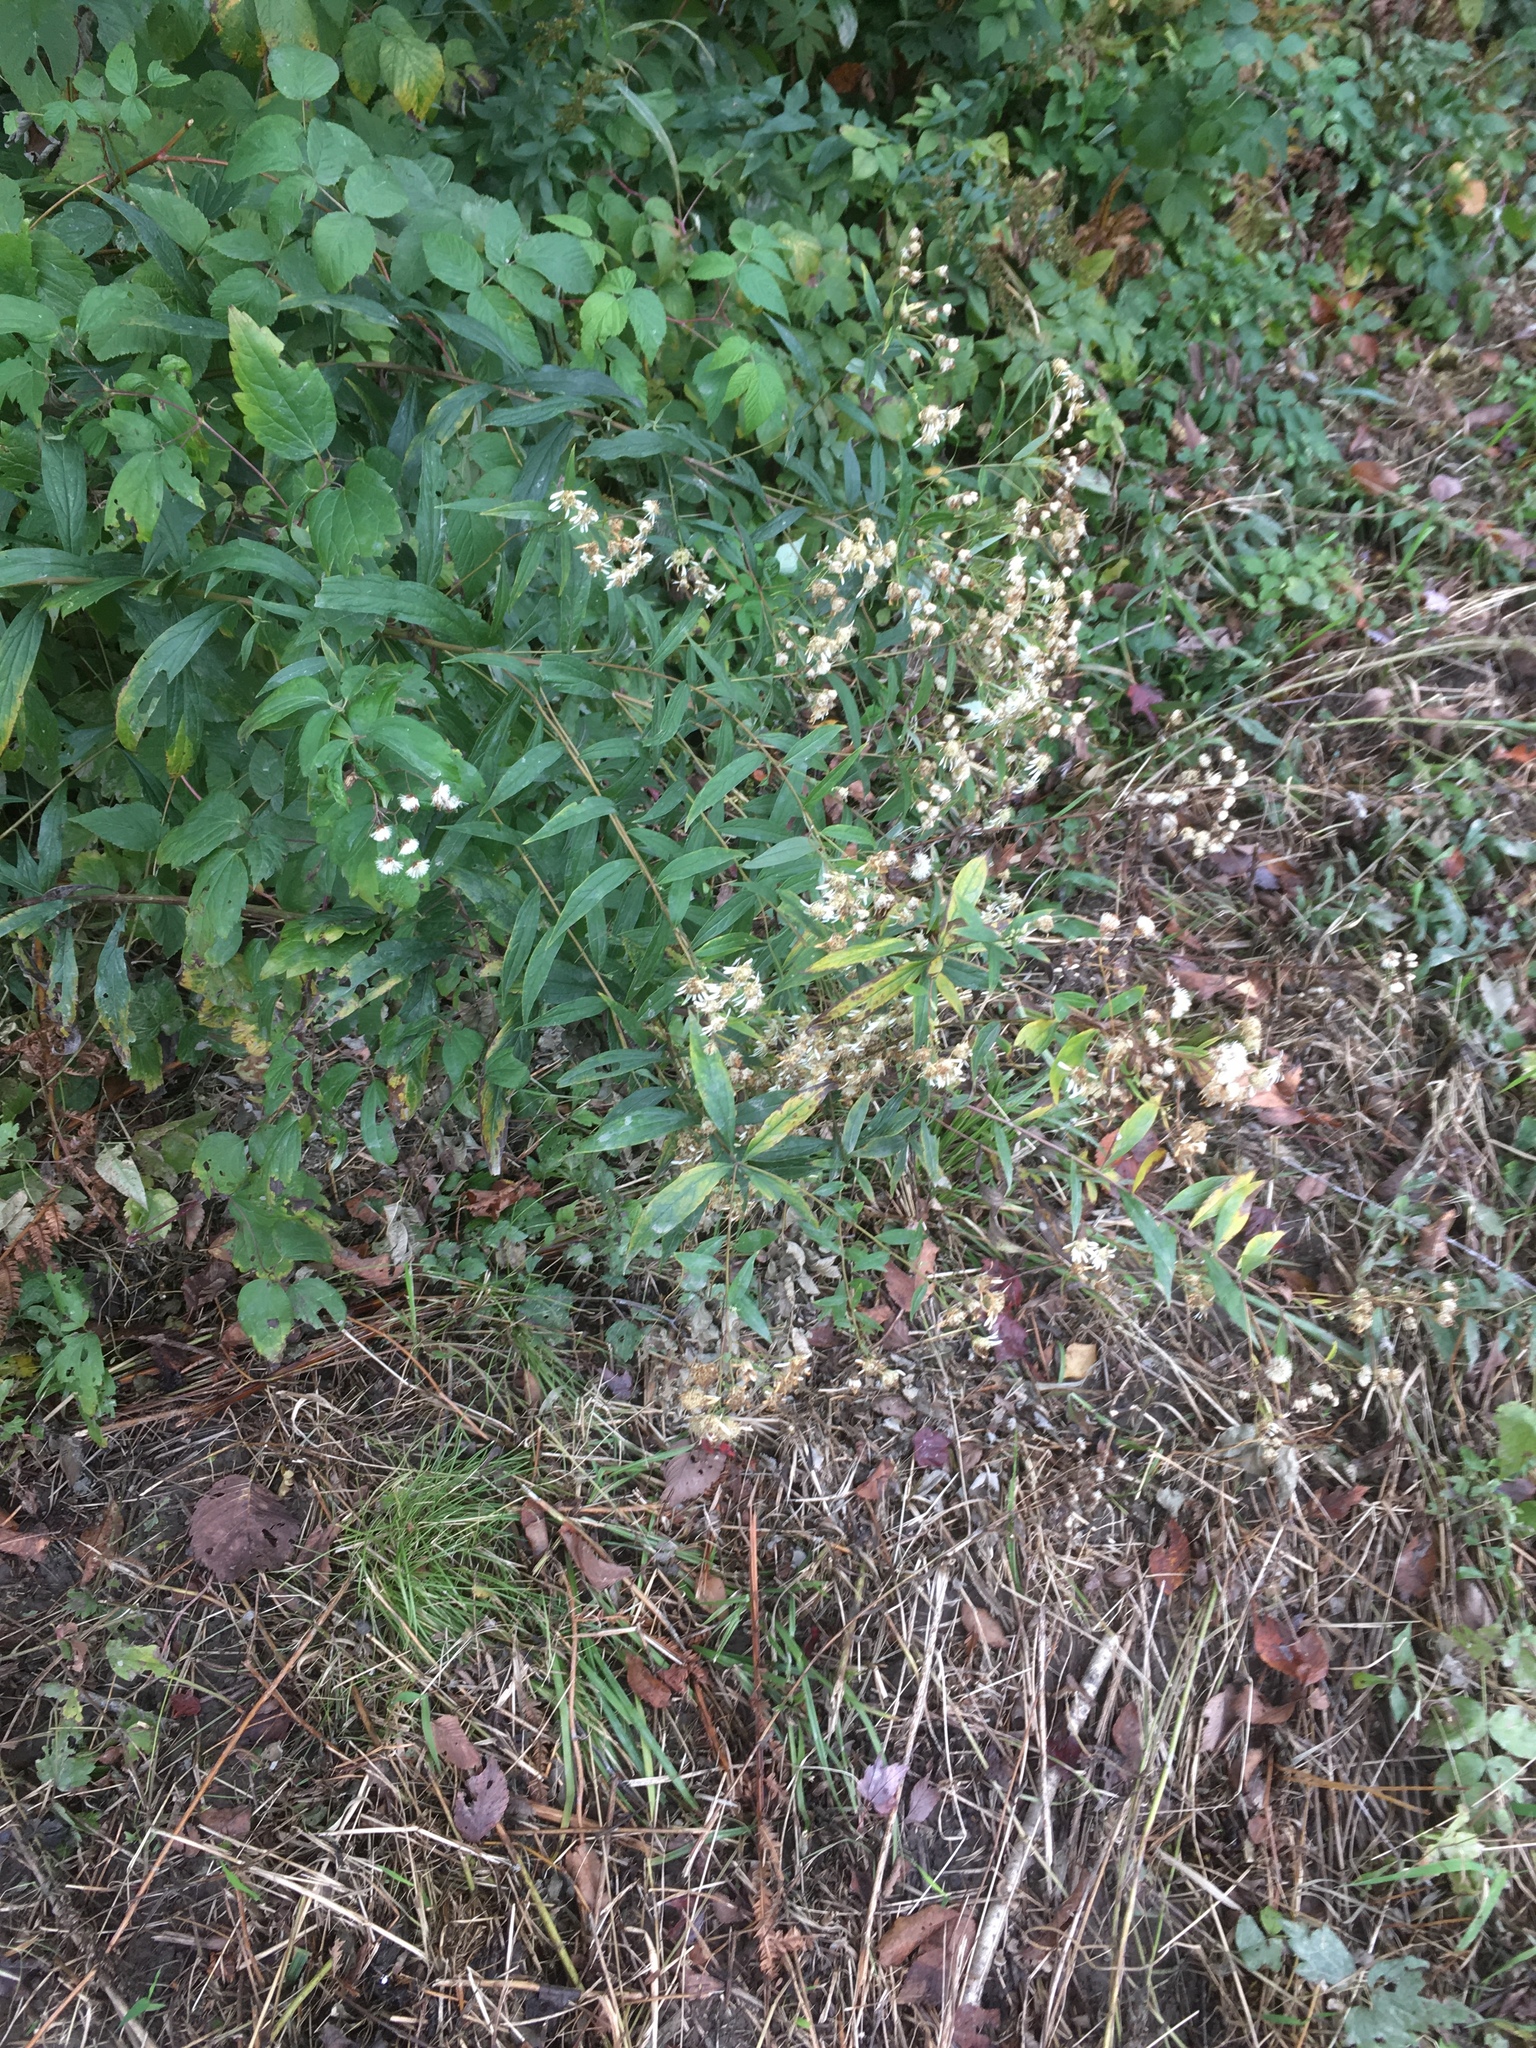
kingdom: Plantae
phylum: Tracheophyta
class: Magnoliopsida
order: Asterales
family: Asteraceae
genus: Doellingeria
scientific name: Doellingeria umbellata
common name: Flat-top white aster
